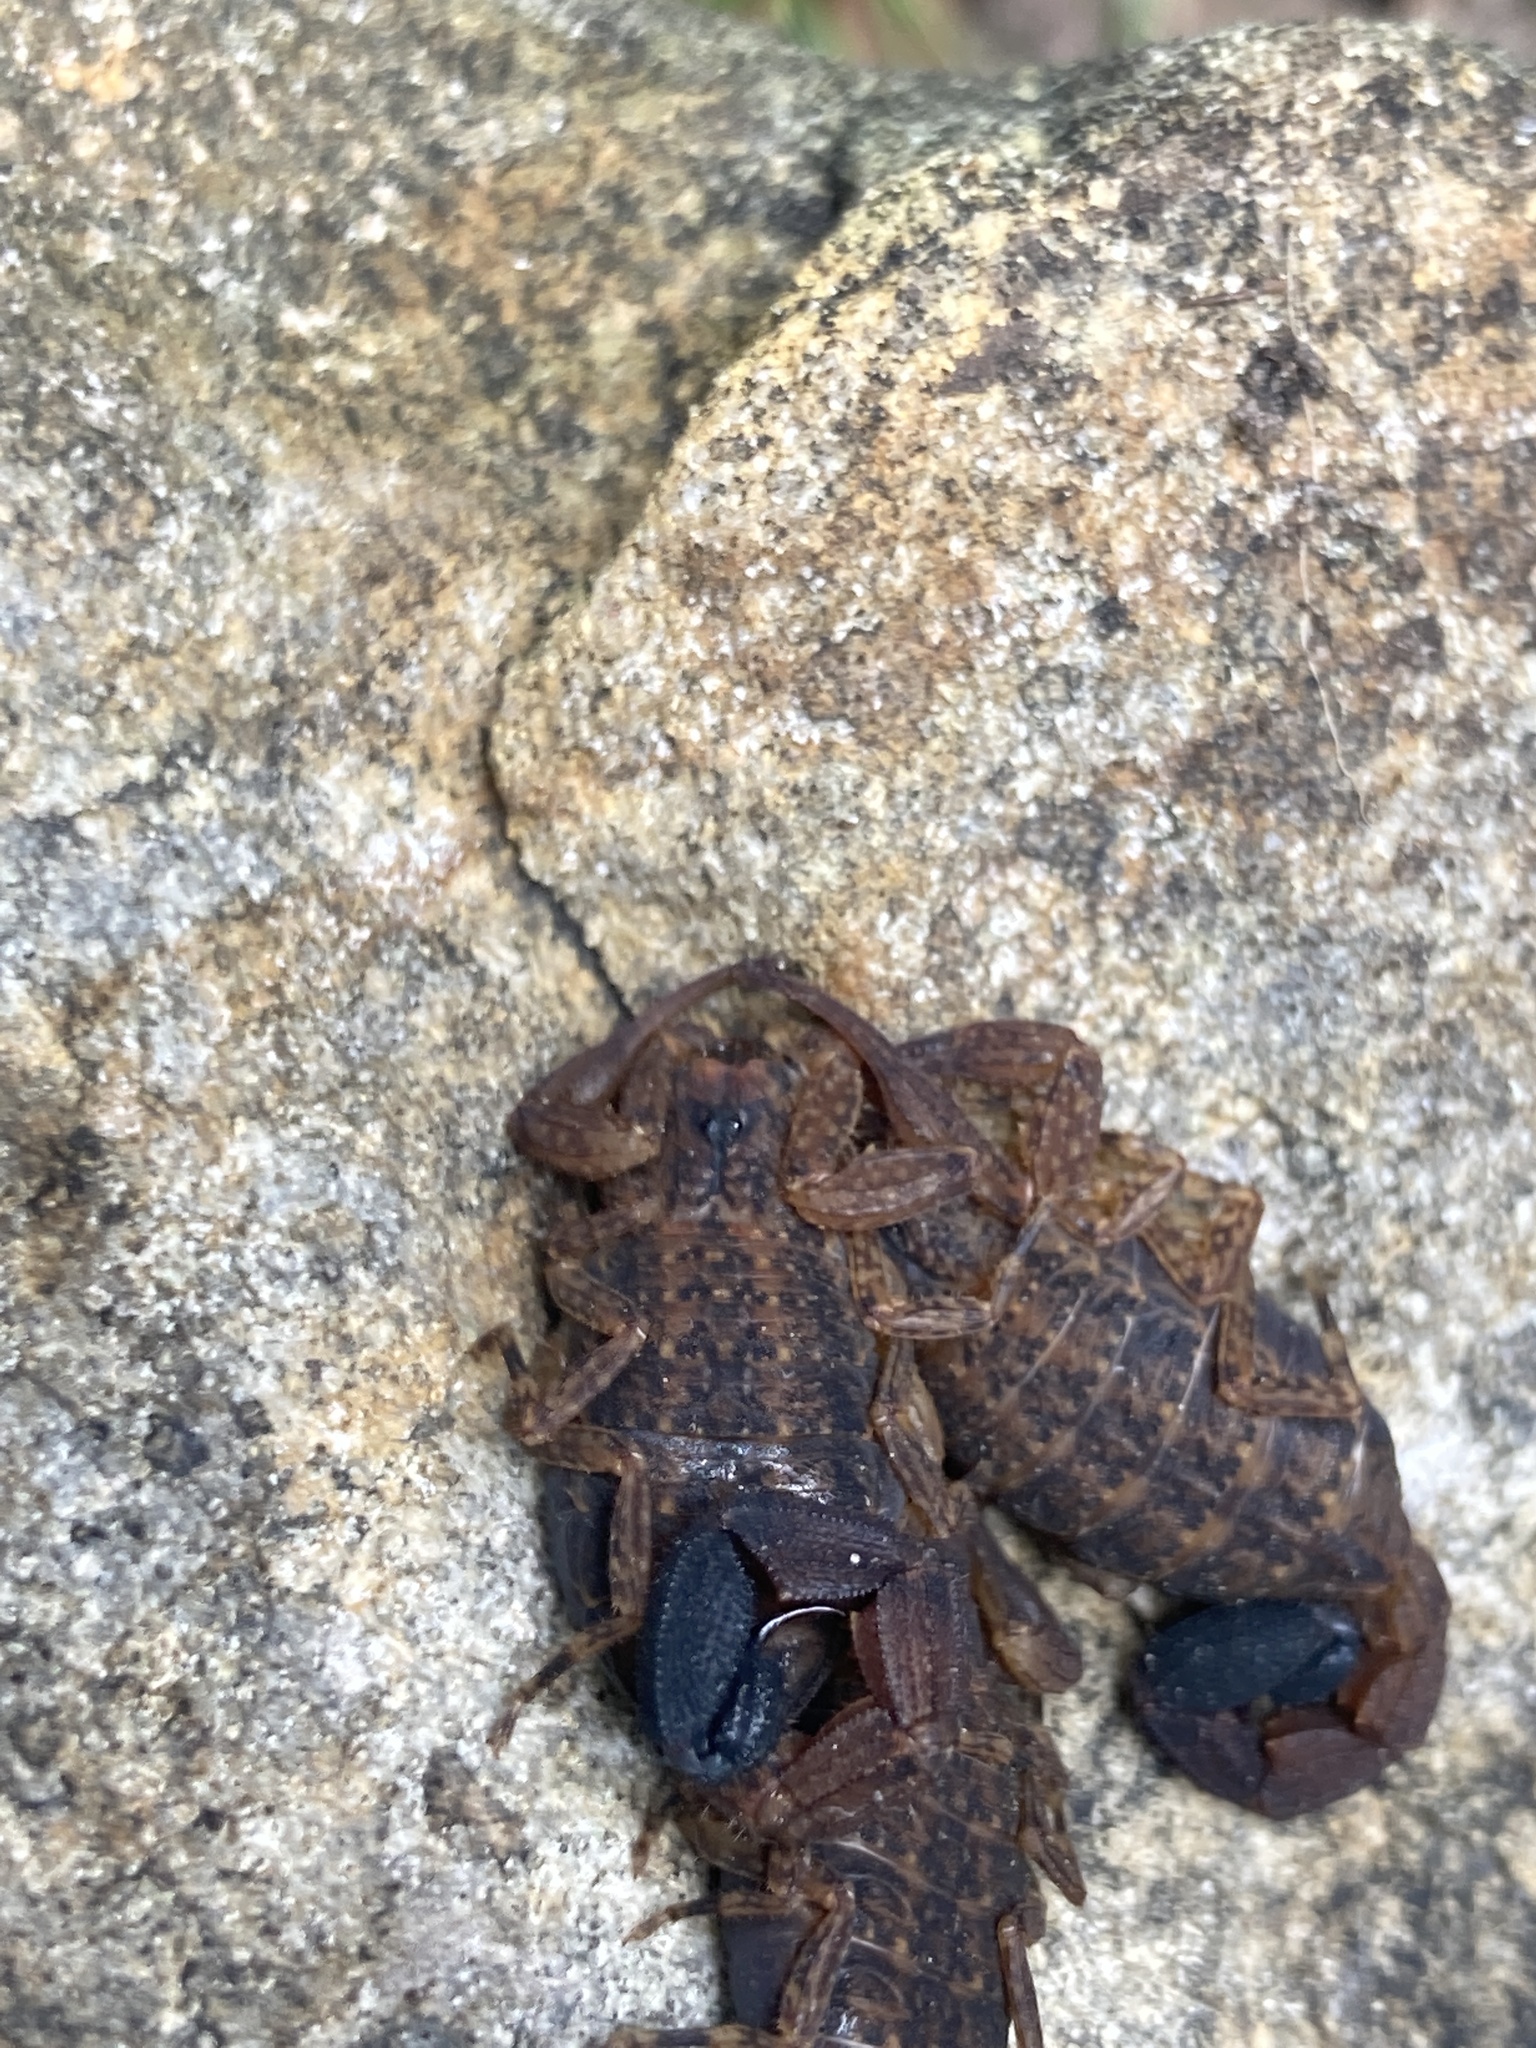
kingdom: Animalia
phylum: Arthropoda
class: Arachnida
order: Scorpiones
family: Buthidae
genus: Tityus
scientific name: Tityus columbianus
